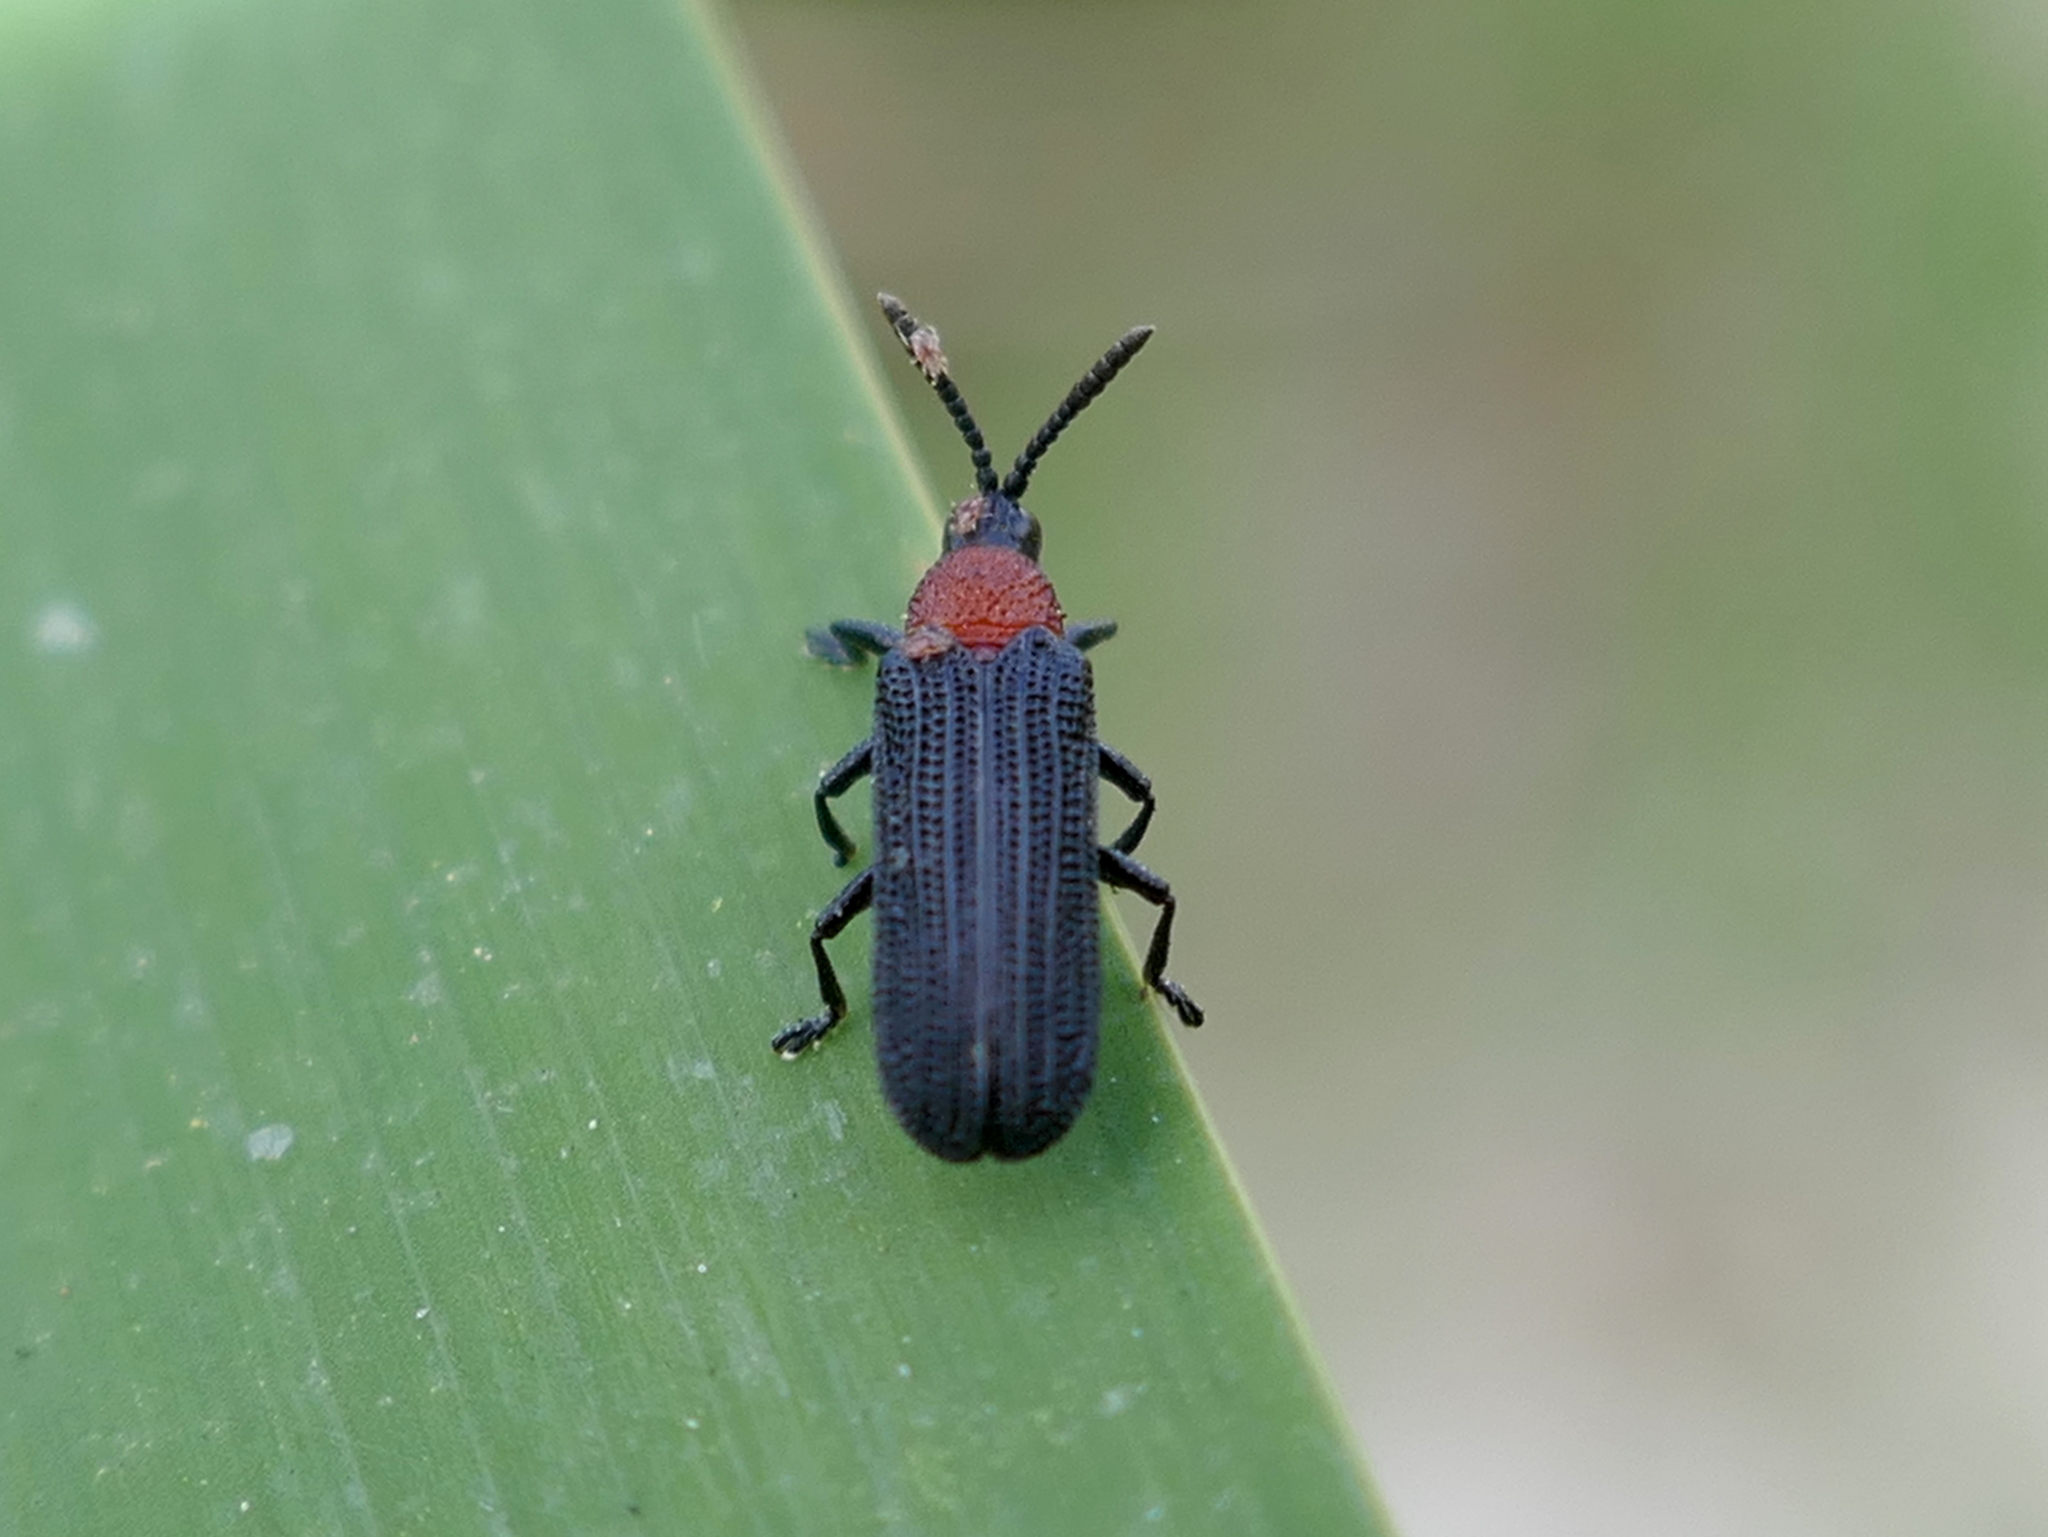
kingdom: Animalia
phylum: Arthropoda
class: Insecta
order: Coleoptera
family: Chrysomelidae
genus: Chalepus
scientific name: Chalepus bicolor
